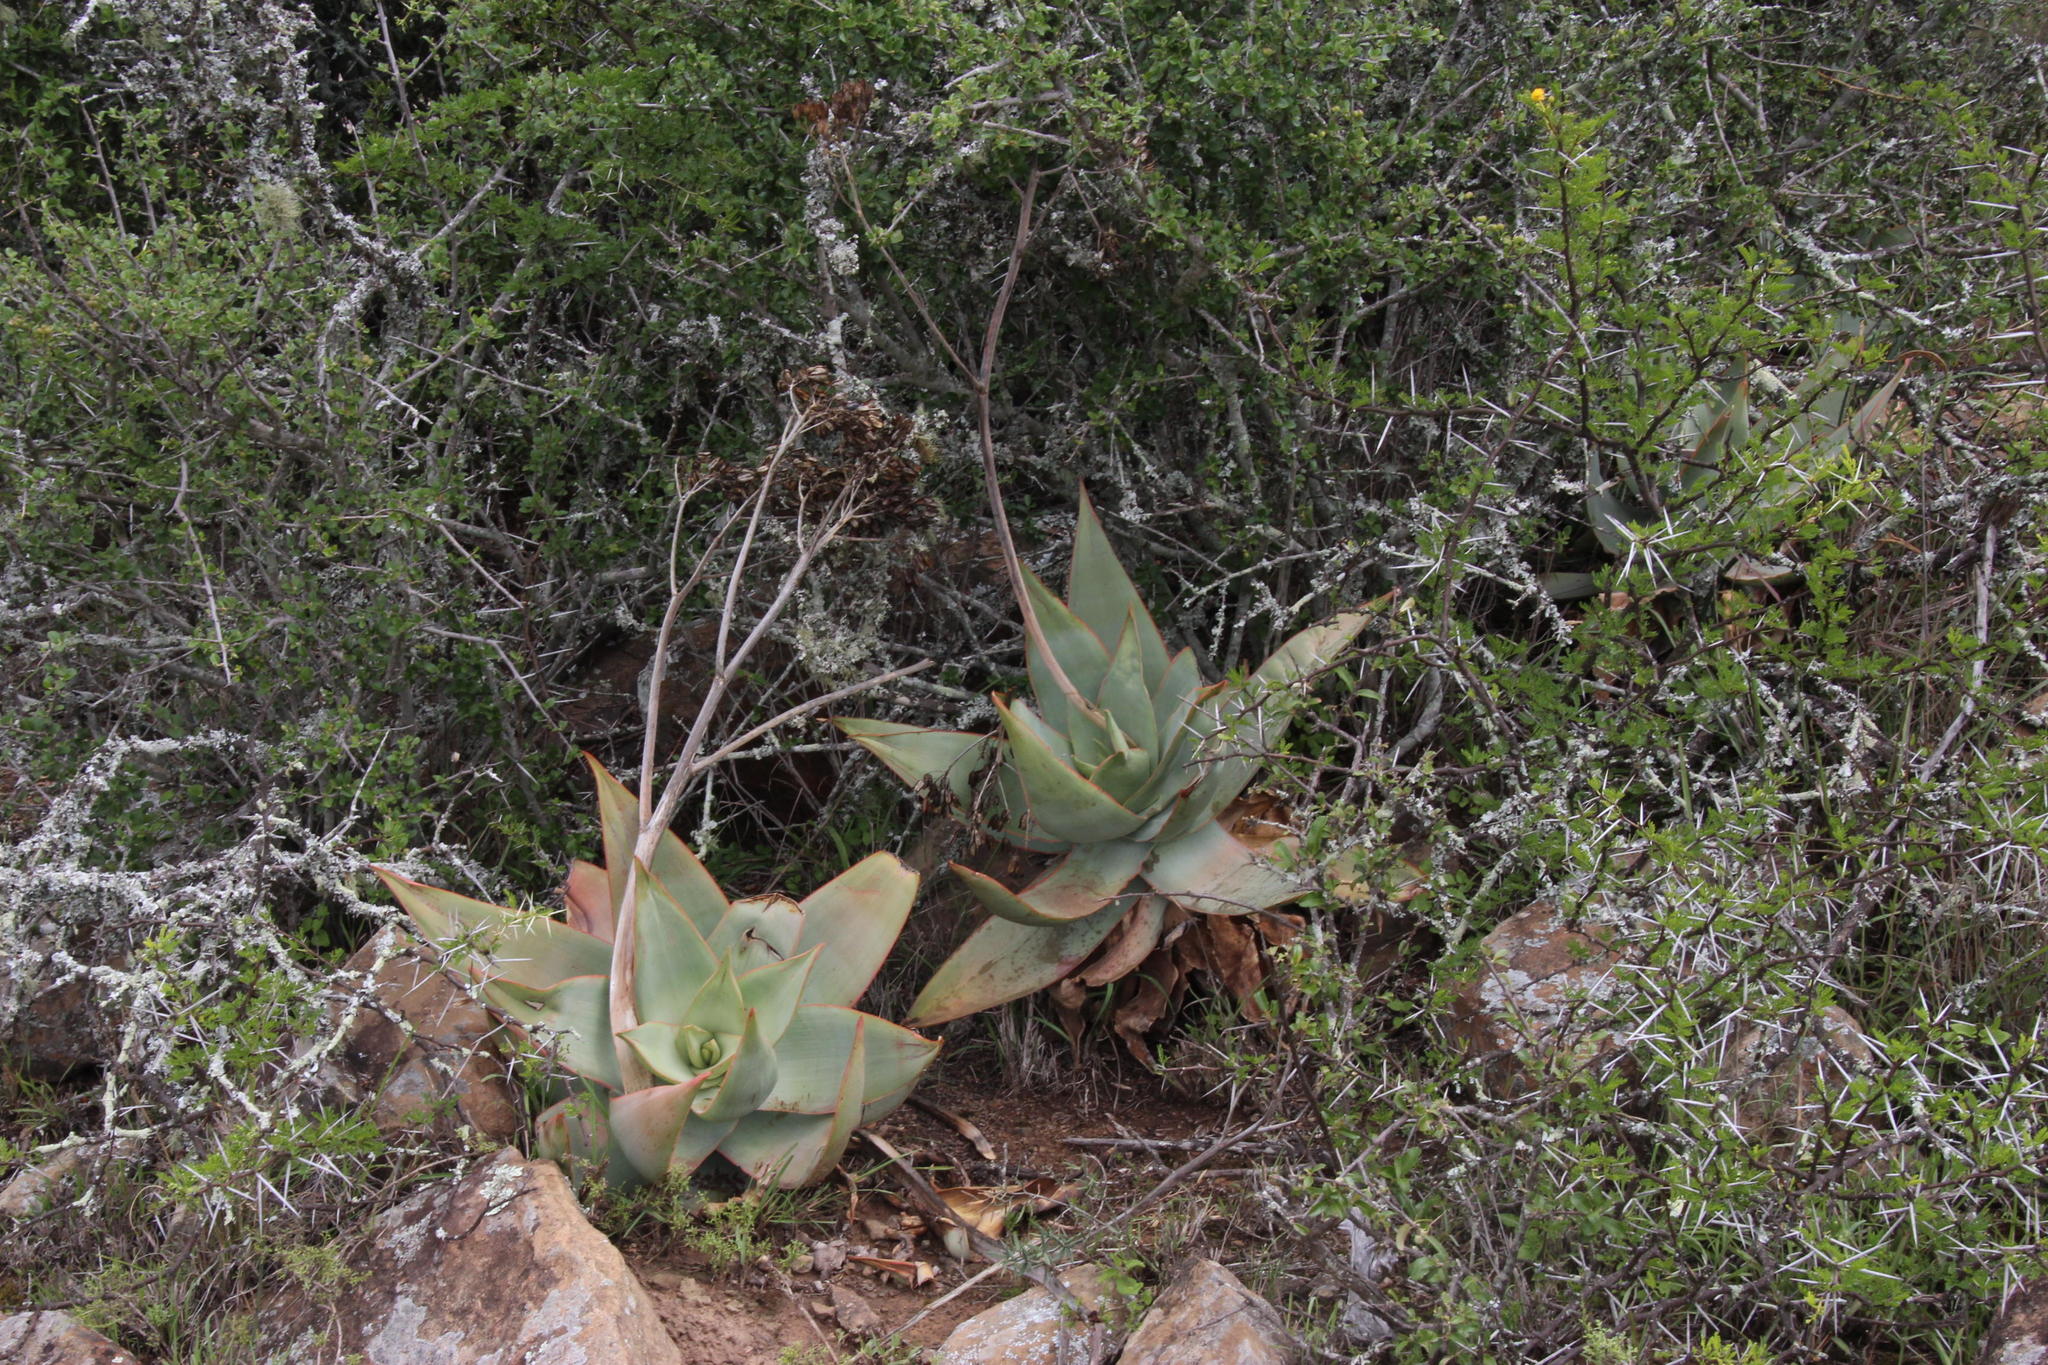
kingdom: Plantae
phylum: Tracheophyta
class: Liliopsida
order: Asparagales
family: Asphodelaceae
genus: Aloe
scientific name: Aloe striata
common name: Coral aloe
